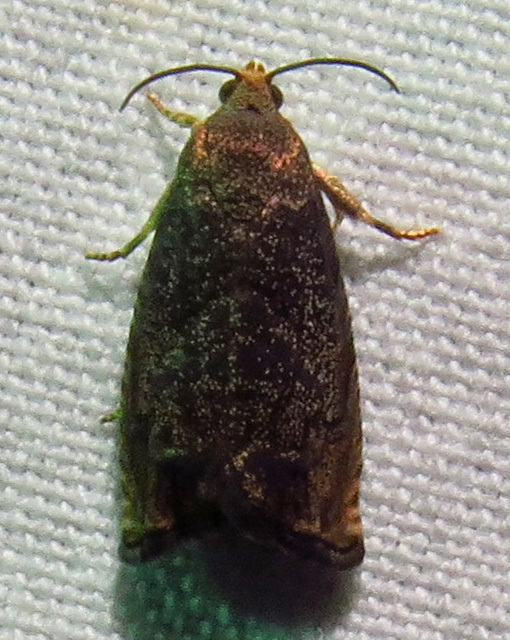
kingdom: Animalia
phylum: Arthropoda
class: Insecta
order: Lepidoptera
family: Tortricidae
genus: Cydia
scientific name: Cydia caryana
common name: Hickory shuckworm moth
